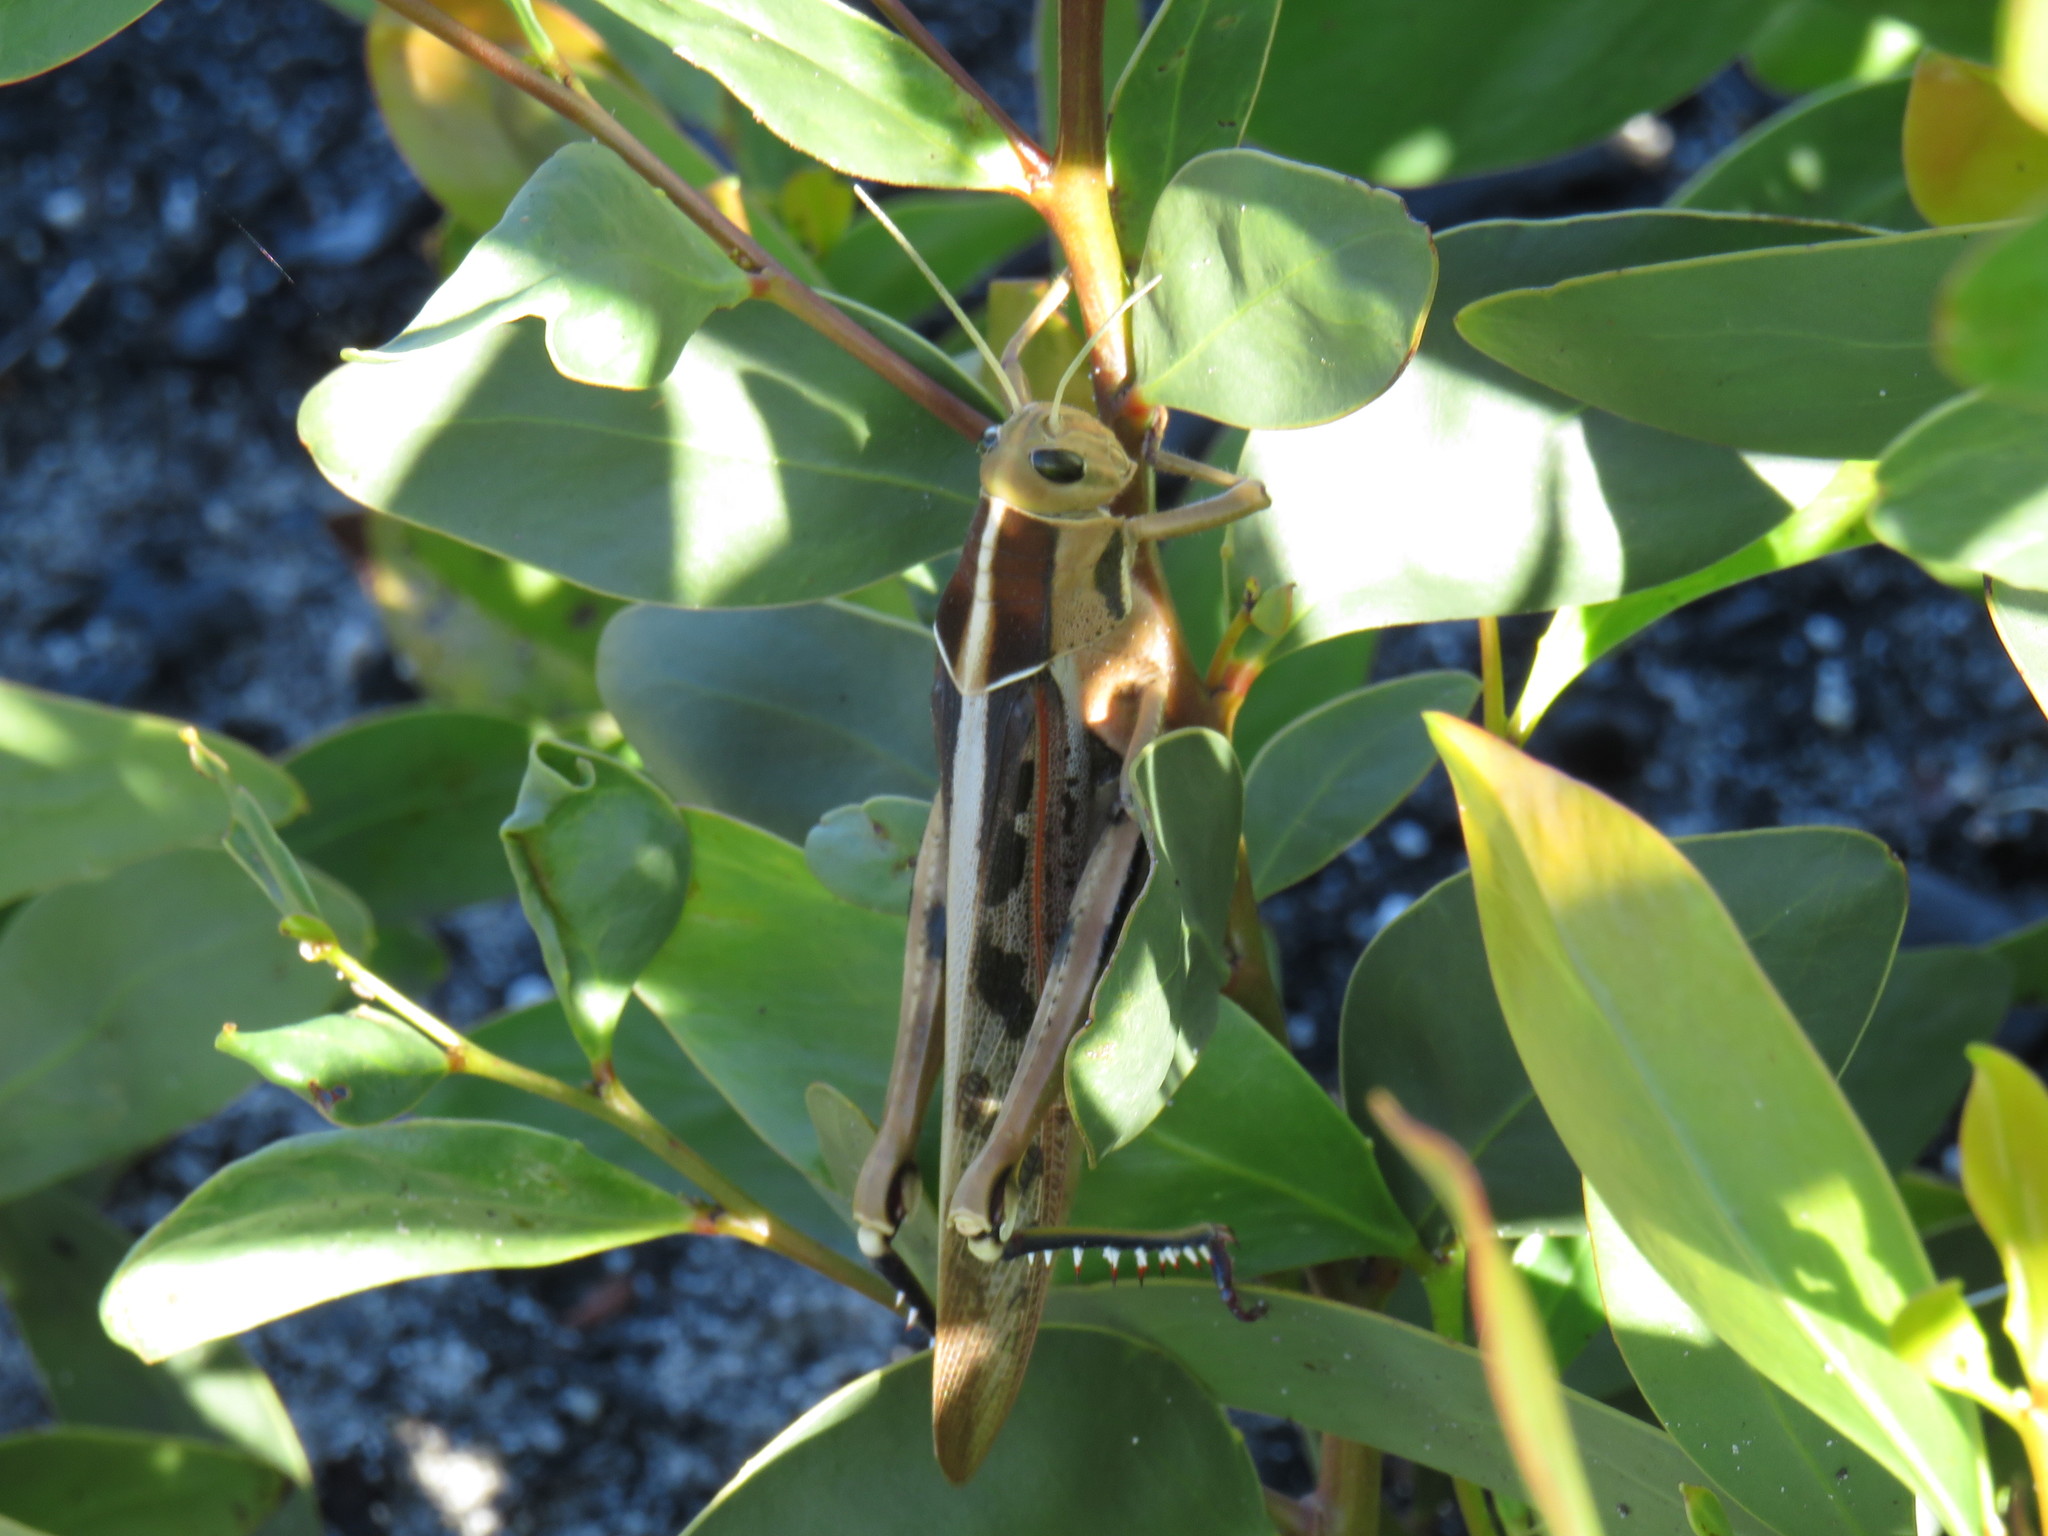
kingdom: Animalia
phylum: Arthropoda
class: Insecta
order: Orthoptera
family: Acrididae
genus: Acanthacris
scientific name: Acanthacris ruficornis
